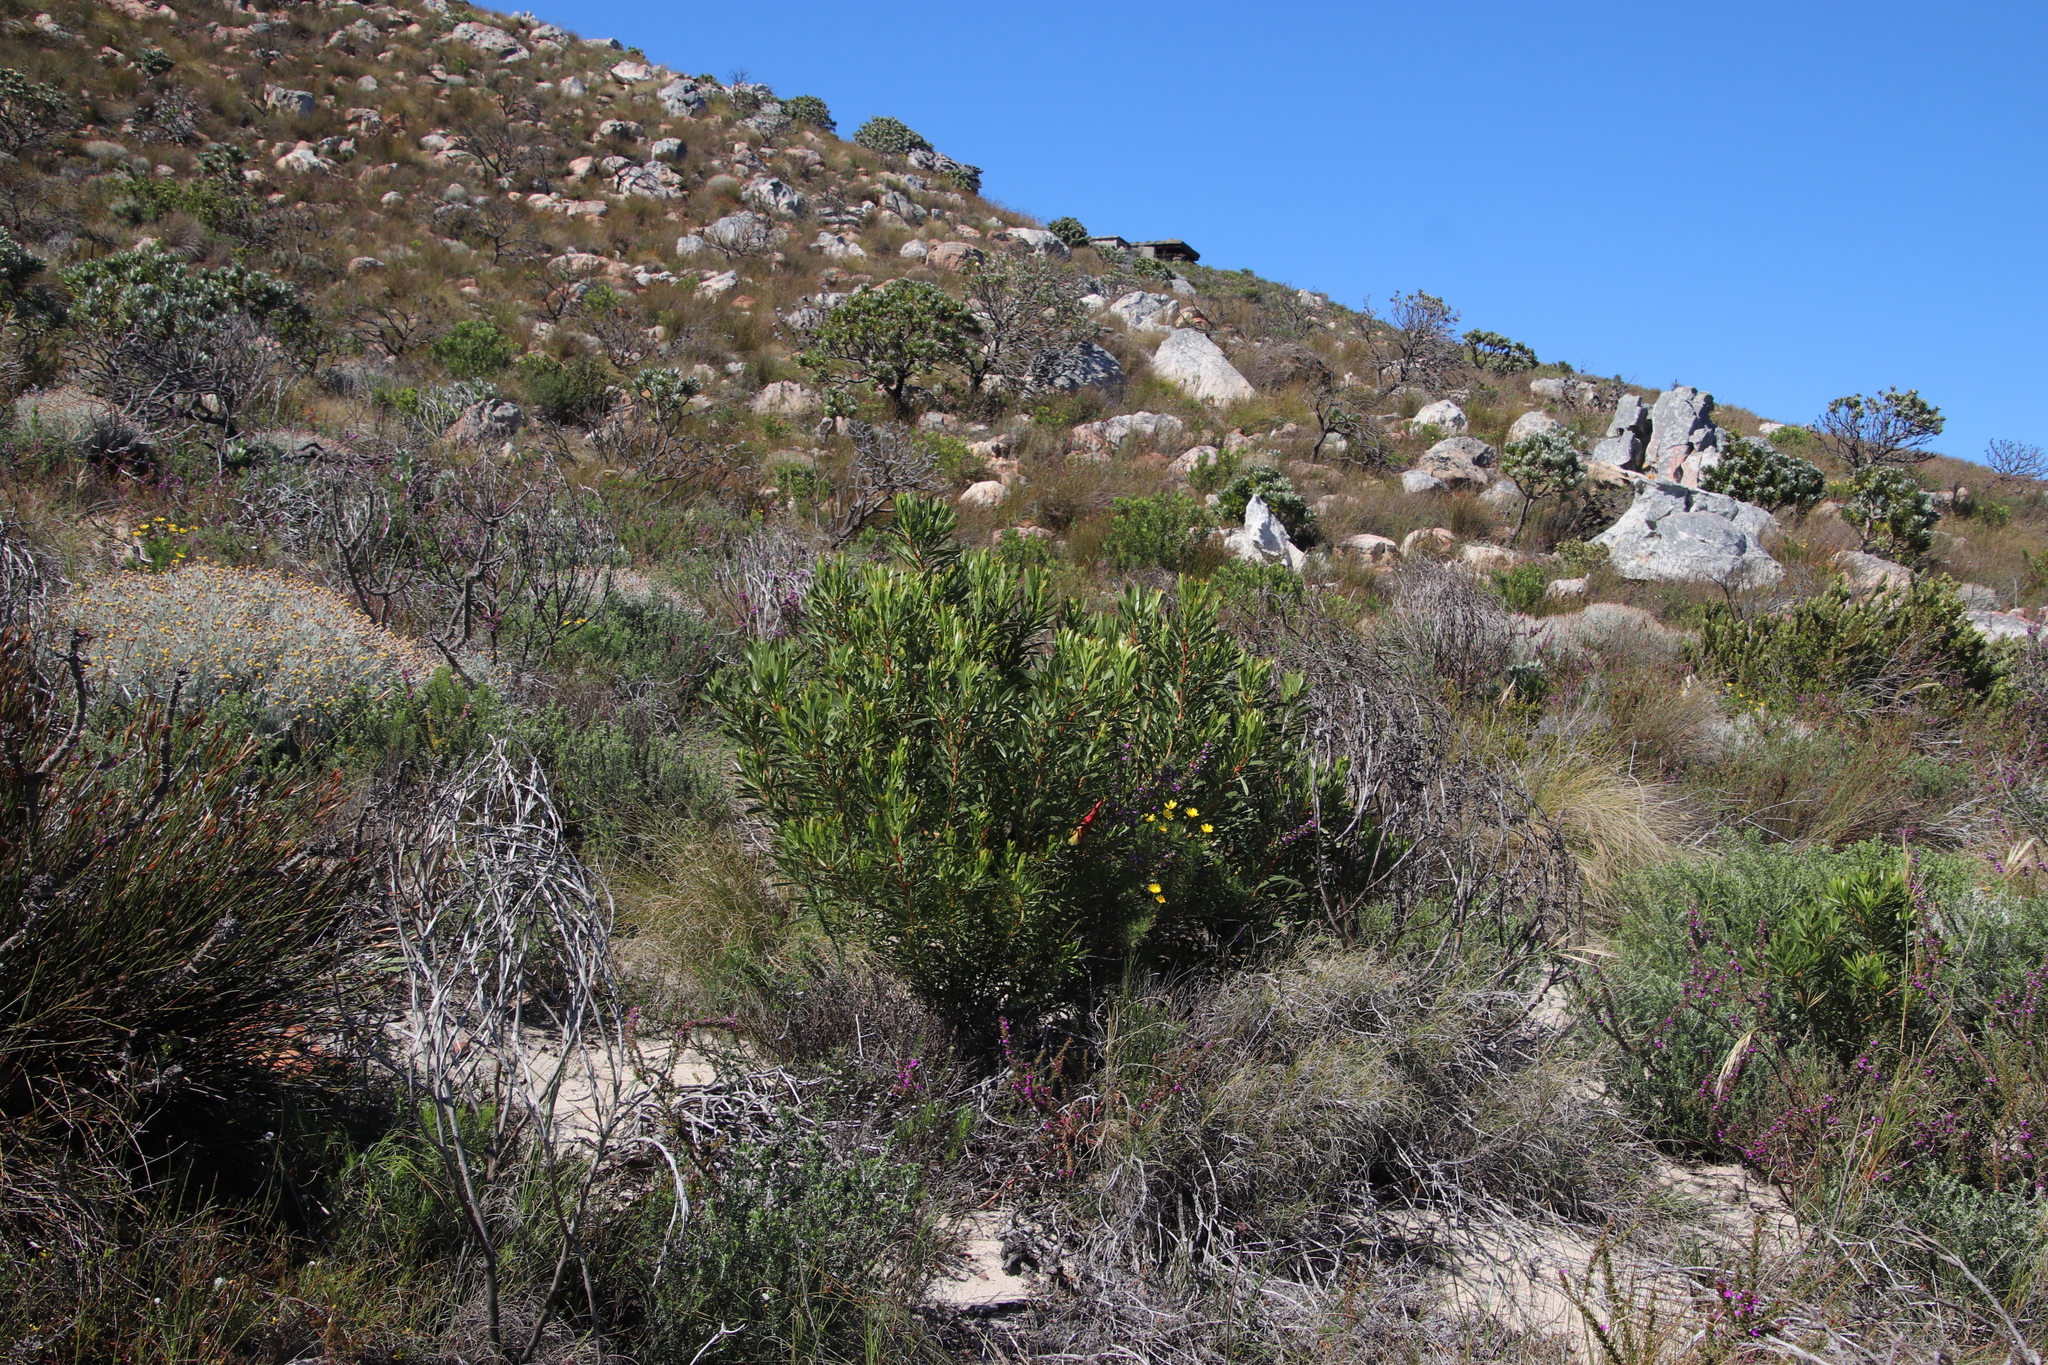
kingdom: Plantae
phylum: Tracheophyta
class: Magnoliopsida
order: Proteales
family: Proteaceae
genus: Protea
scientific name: Protea repens
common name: Sugarbush
